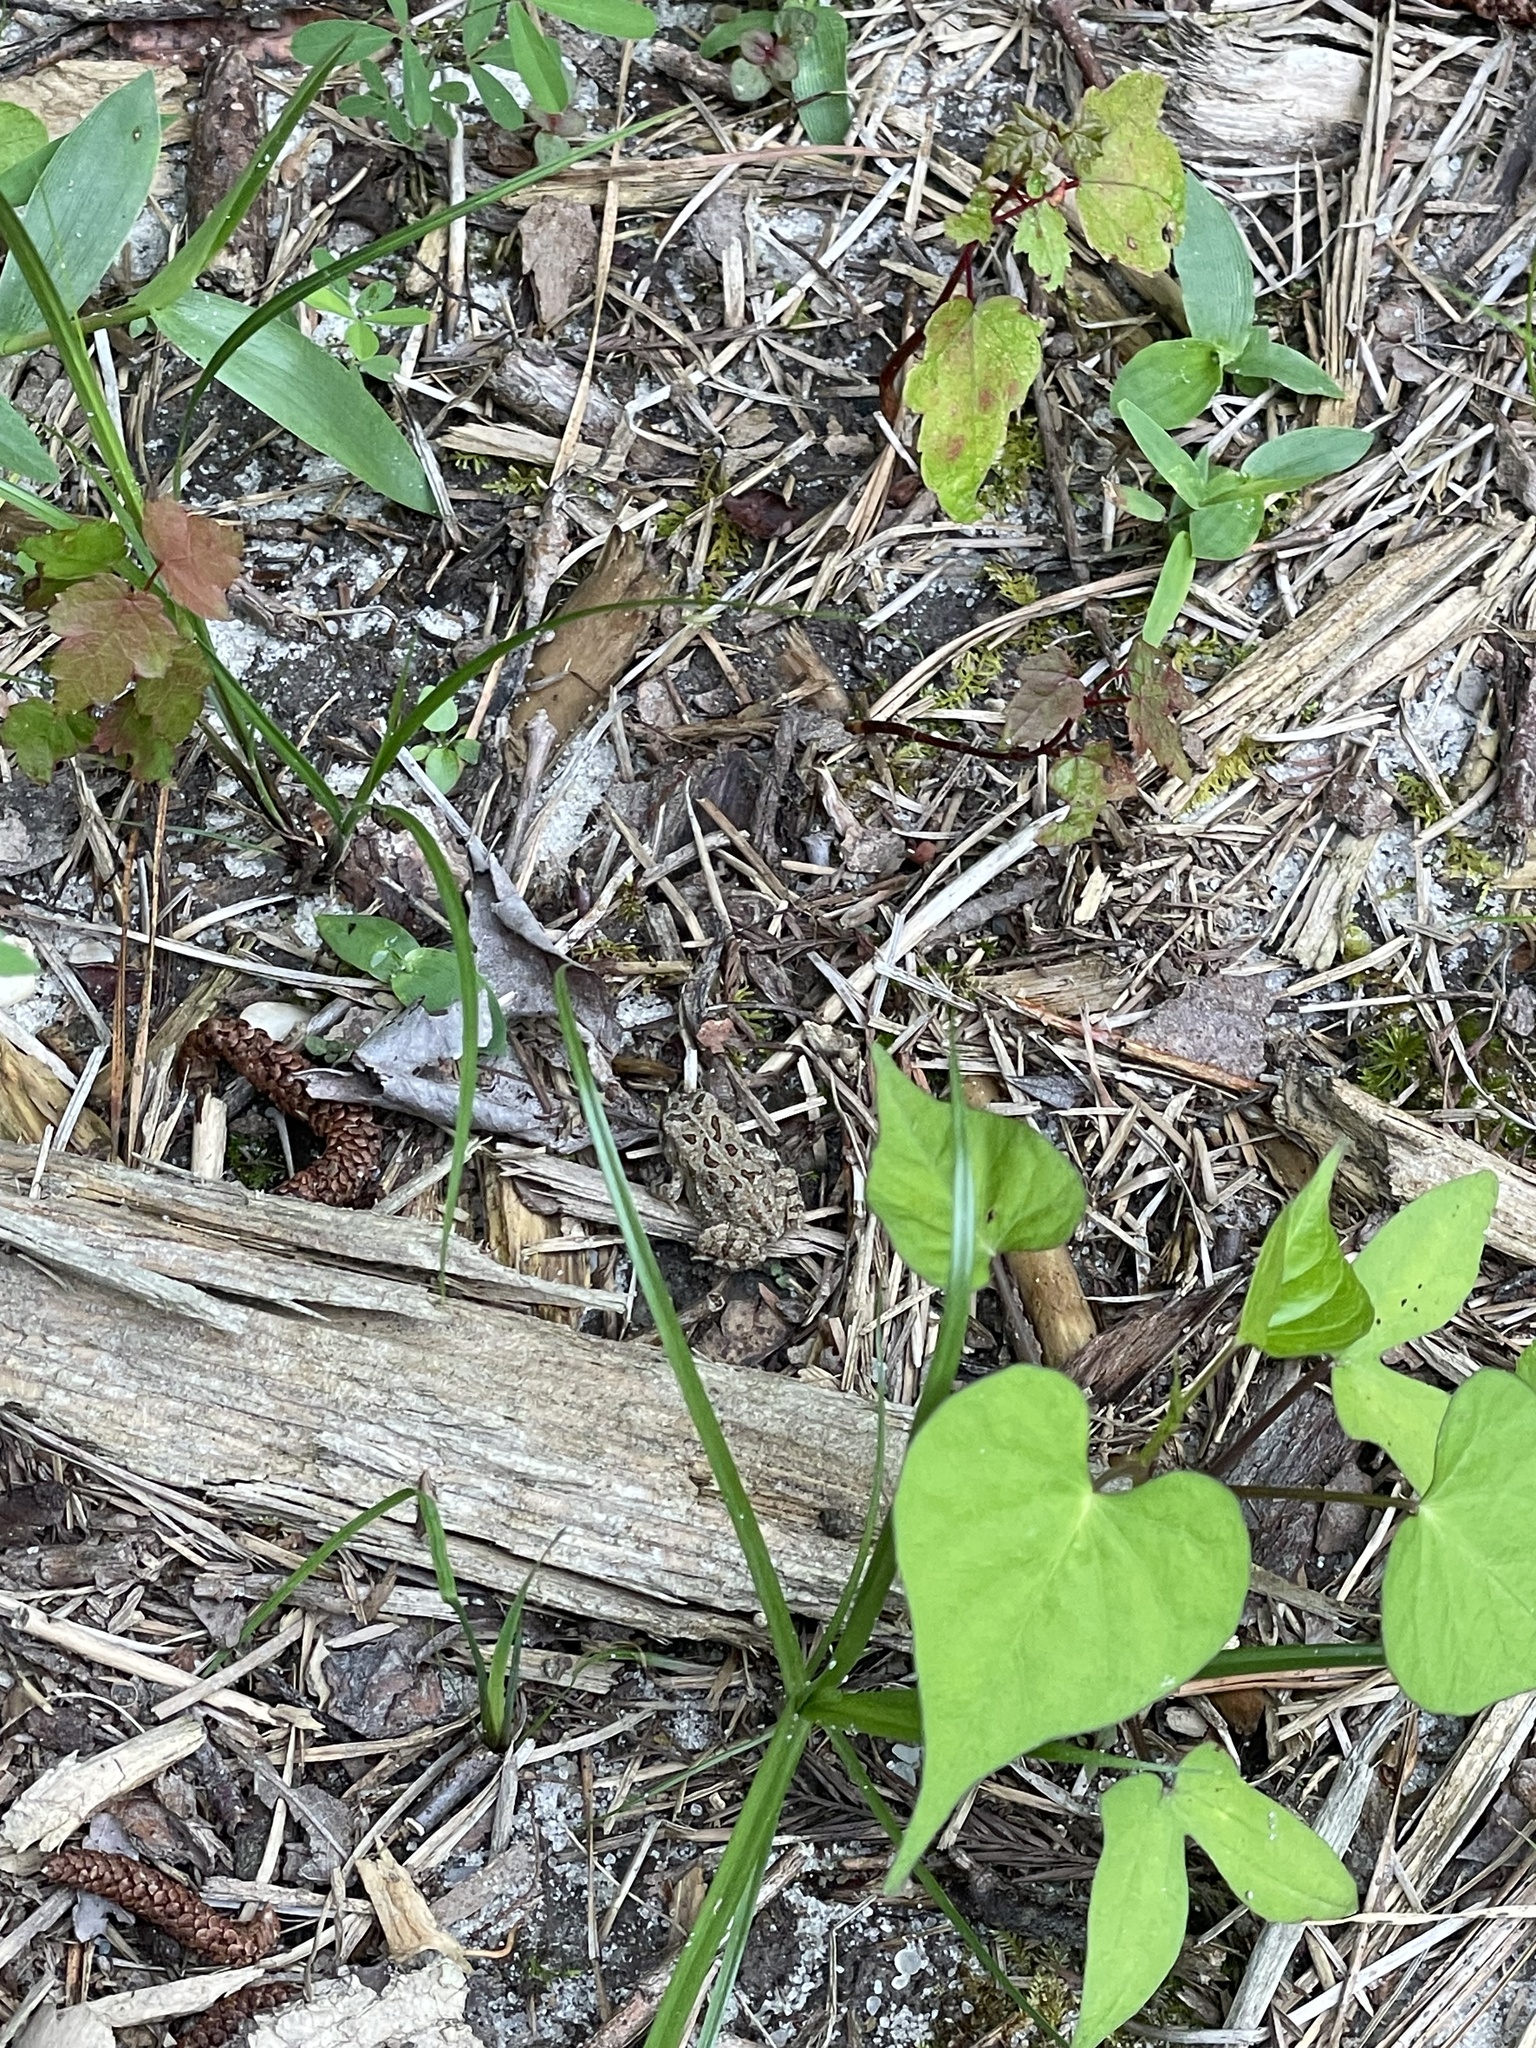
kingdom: Animalia
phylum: Chordata
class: Amphibia
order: Anura
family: Bufonidae
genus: Anaxyrus
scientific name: Anaxyrus fowleri
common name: Fowler's toad
